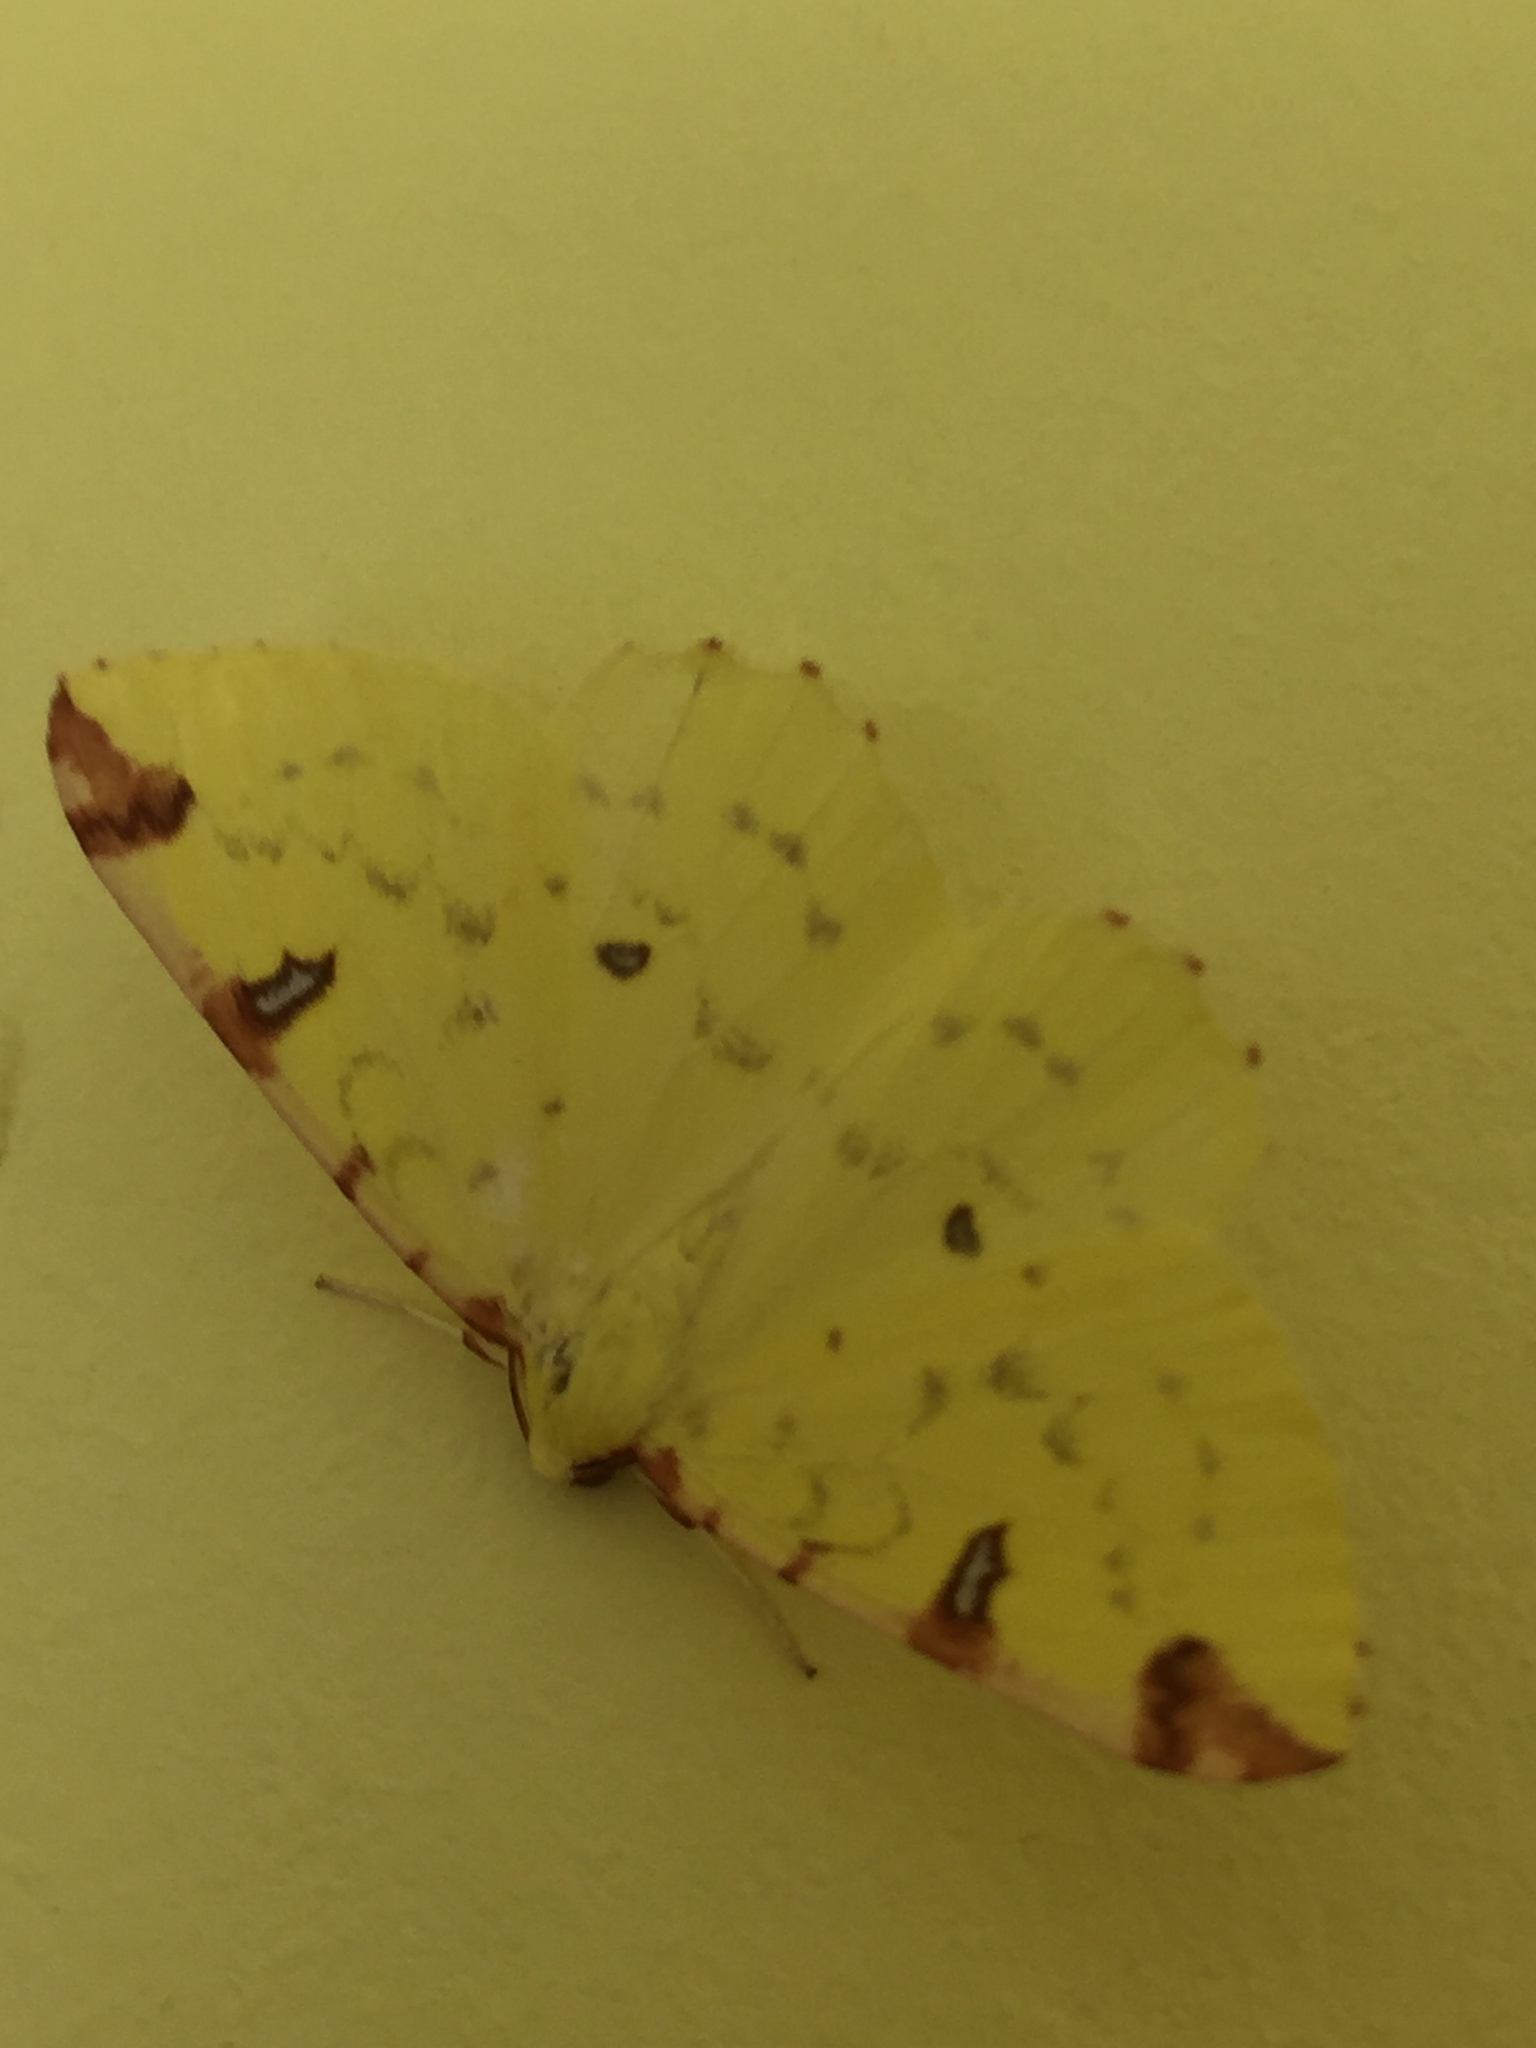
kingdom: Animalia
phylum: Arthropoda
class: Insecta
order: Lepidoptera
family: Geometridae
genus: Opisthograptis
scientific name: Opisthograptis luteolata
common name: Brimstone moth
